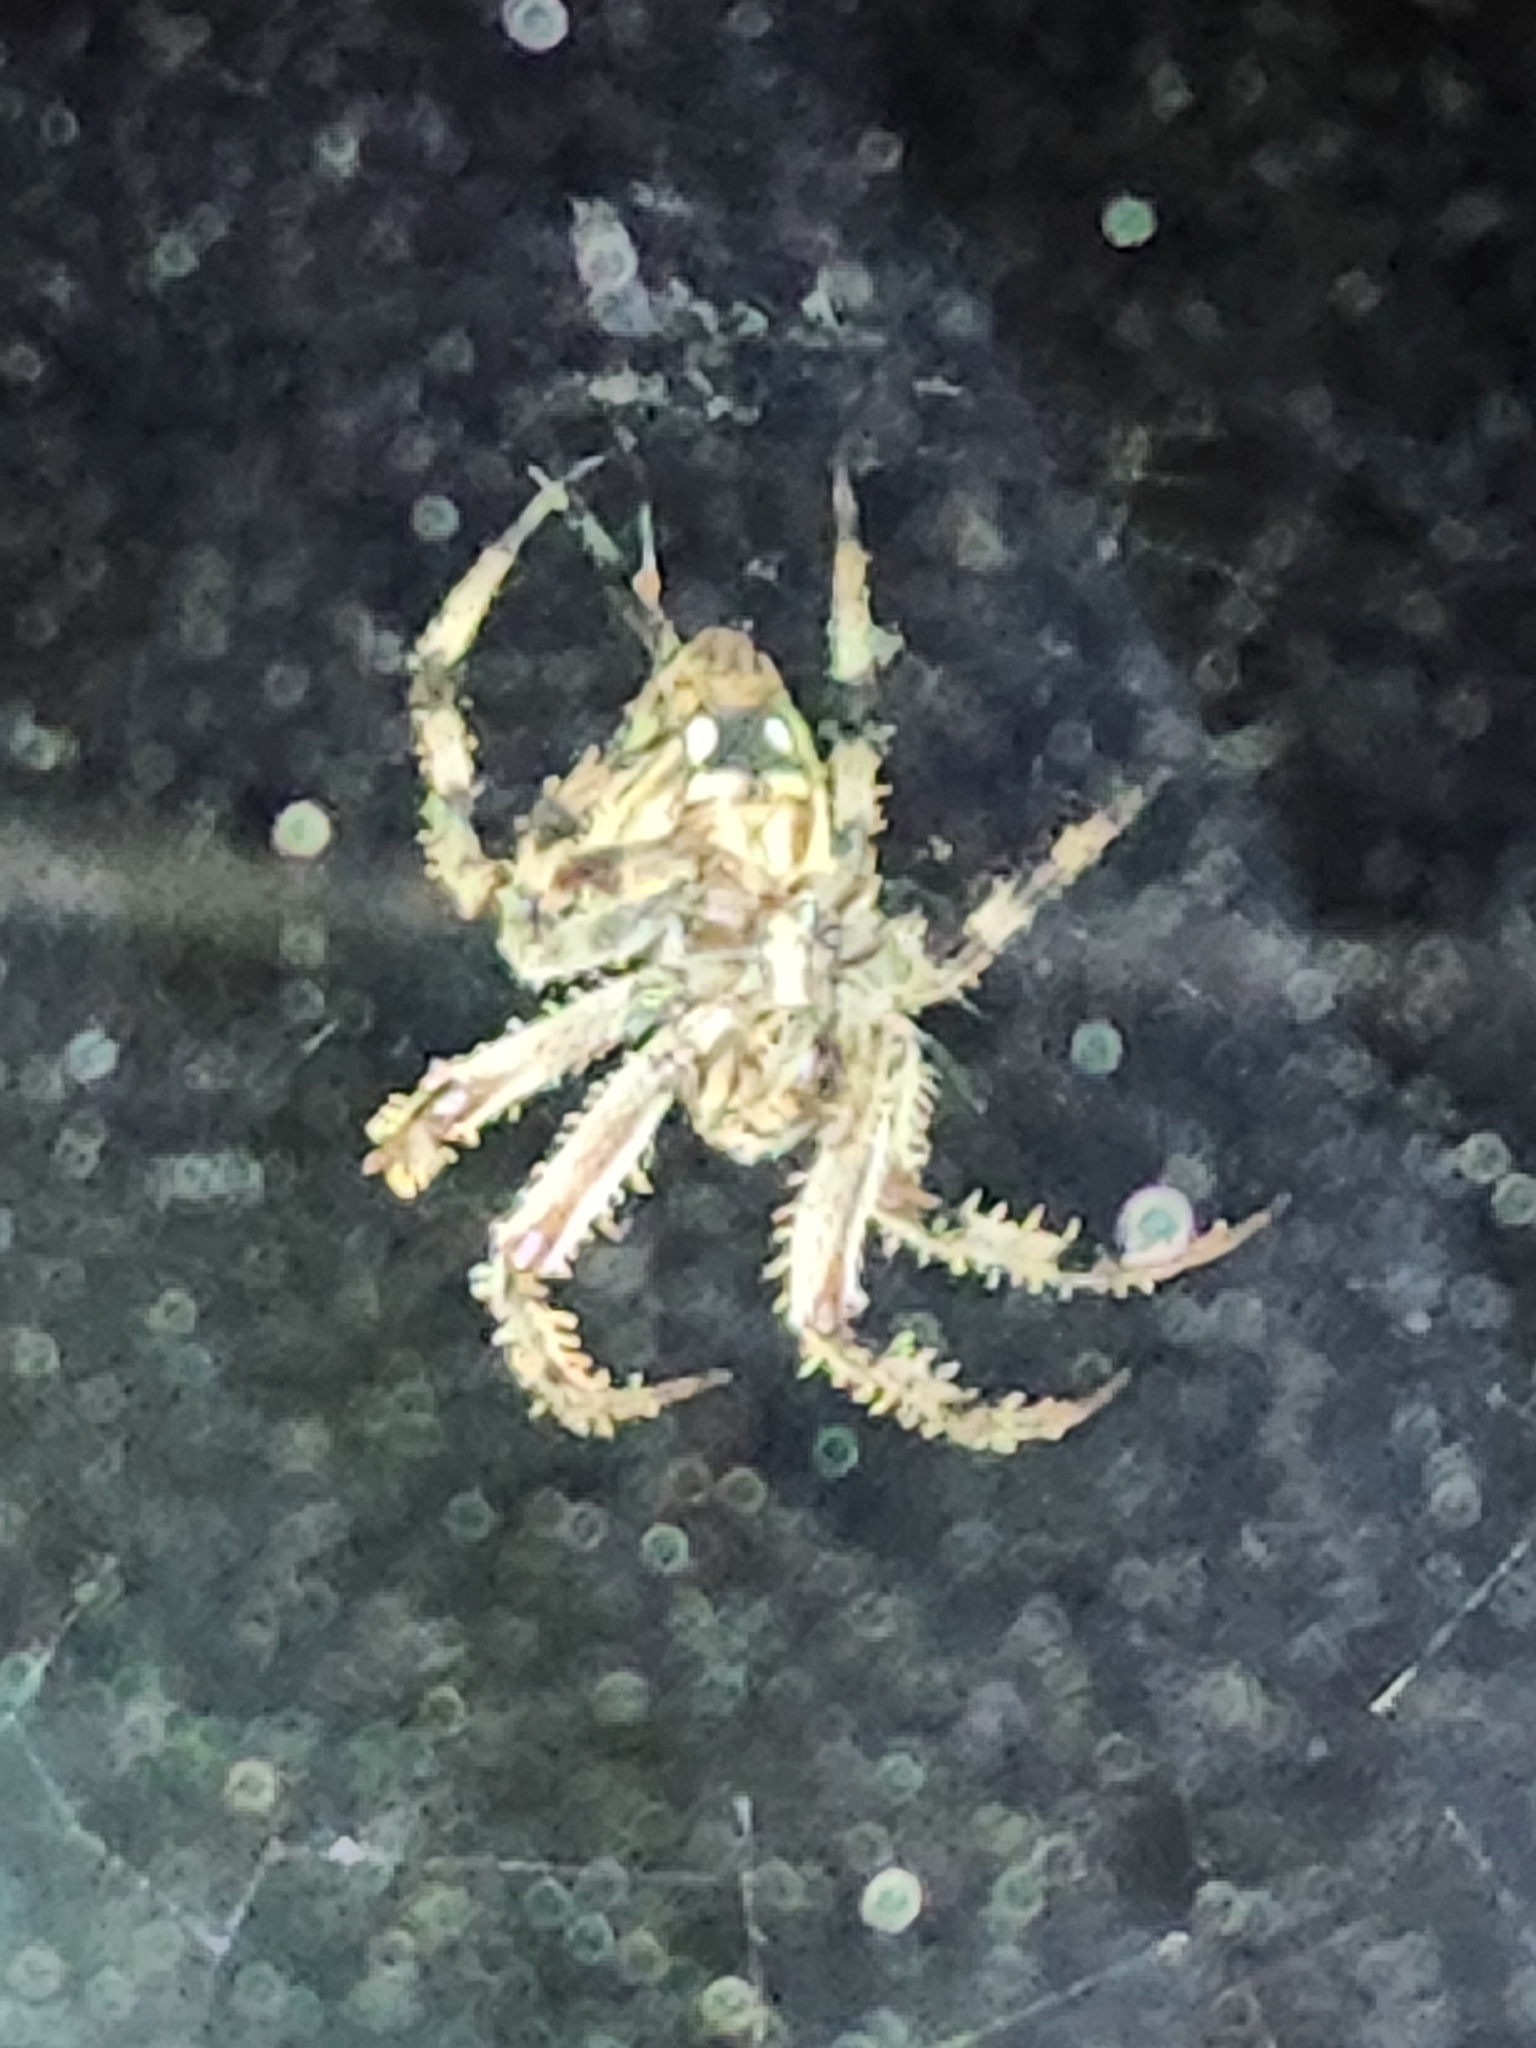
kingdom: Animalia
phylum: Arthropoda
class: Arachnida
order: Araneae
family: Araneidae
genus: Neoscona
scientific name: Neoscona crucifera
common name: Spotted orbweaver
